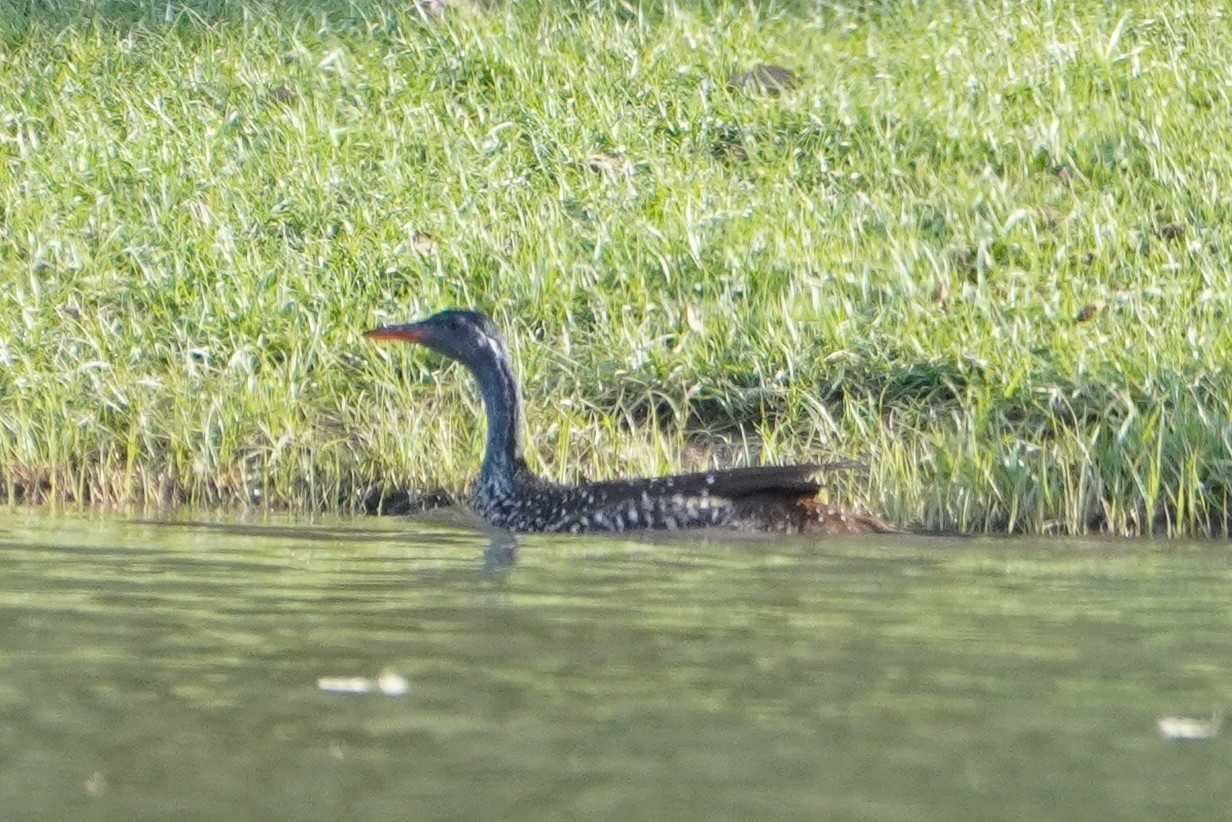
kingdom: Animalia
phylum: Chordata
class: Aves
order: Gruiformes
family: Heliornithidae
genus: Podica
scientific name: Podica senegalensis
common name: African finfoot
